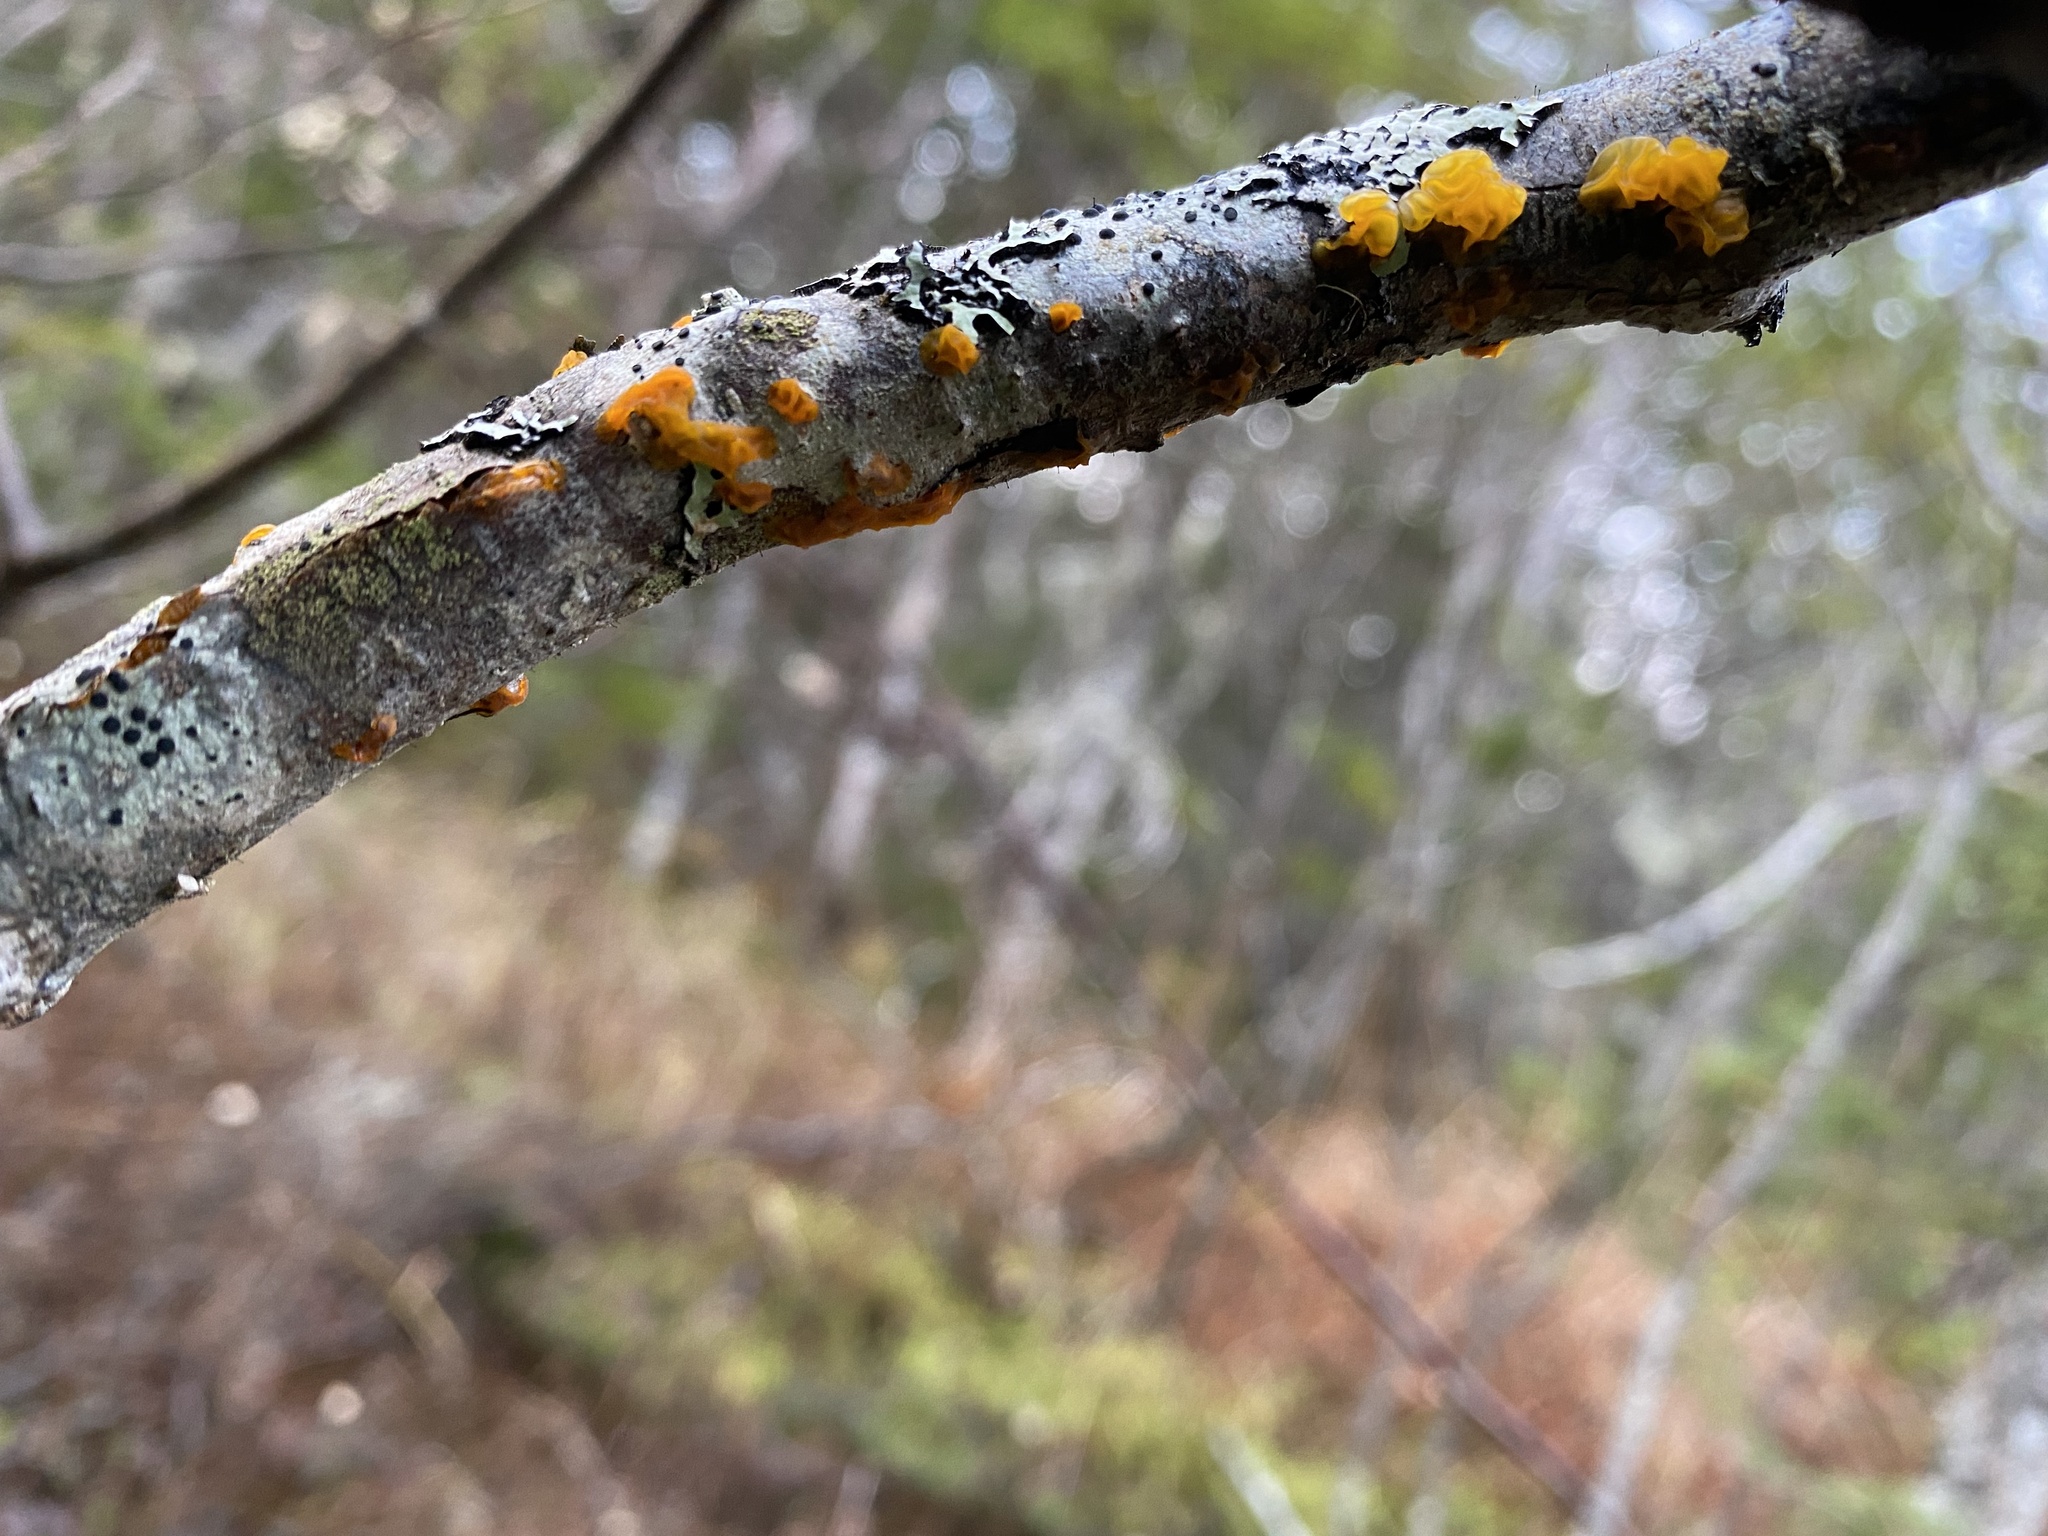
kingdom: Fungi
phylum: Basidiomycota
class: Dacrymycetes
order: Dacrymycetales
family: Dacrymycetaceae
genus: Dacrymyces
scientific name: Dacrymyces chrysospermus
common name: Orange jelly spot
